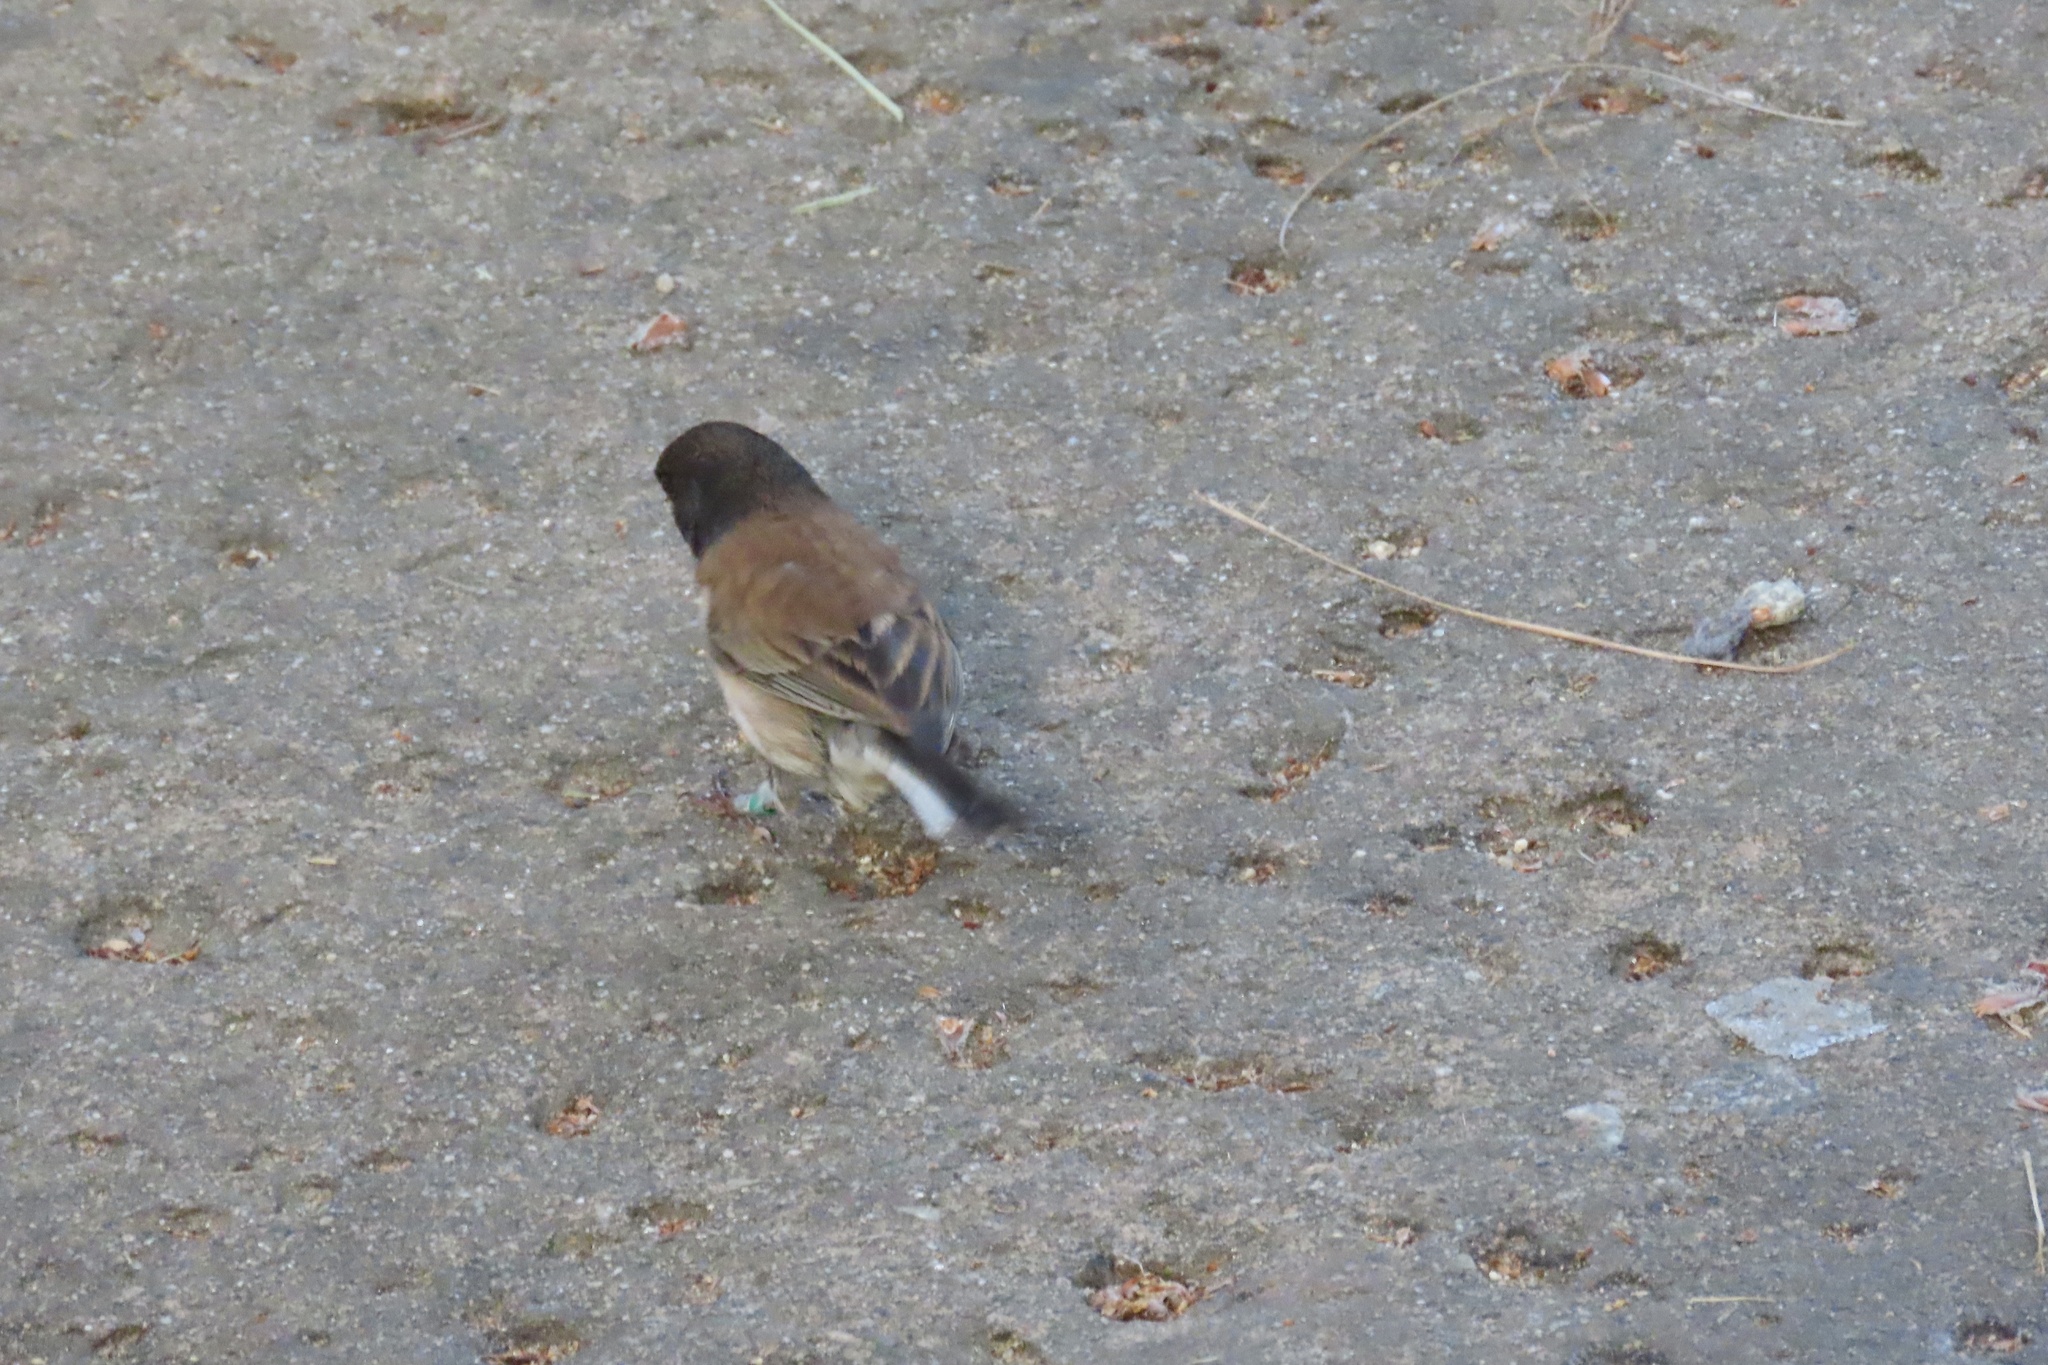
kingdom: Animalia
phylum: Chordata
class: Aves
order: Passeriformes
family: Passerellidae
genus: Junco
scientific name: Junco hyemalis
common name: Dark-eyed junco
